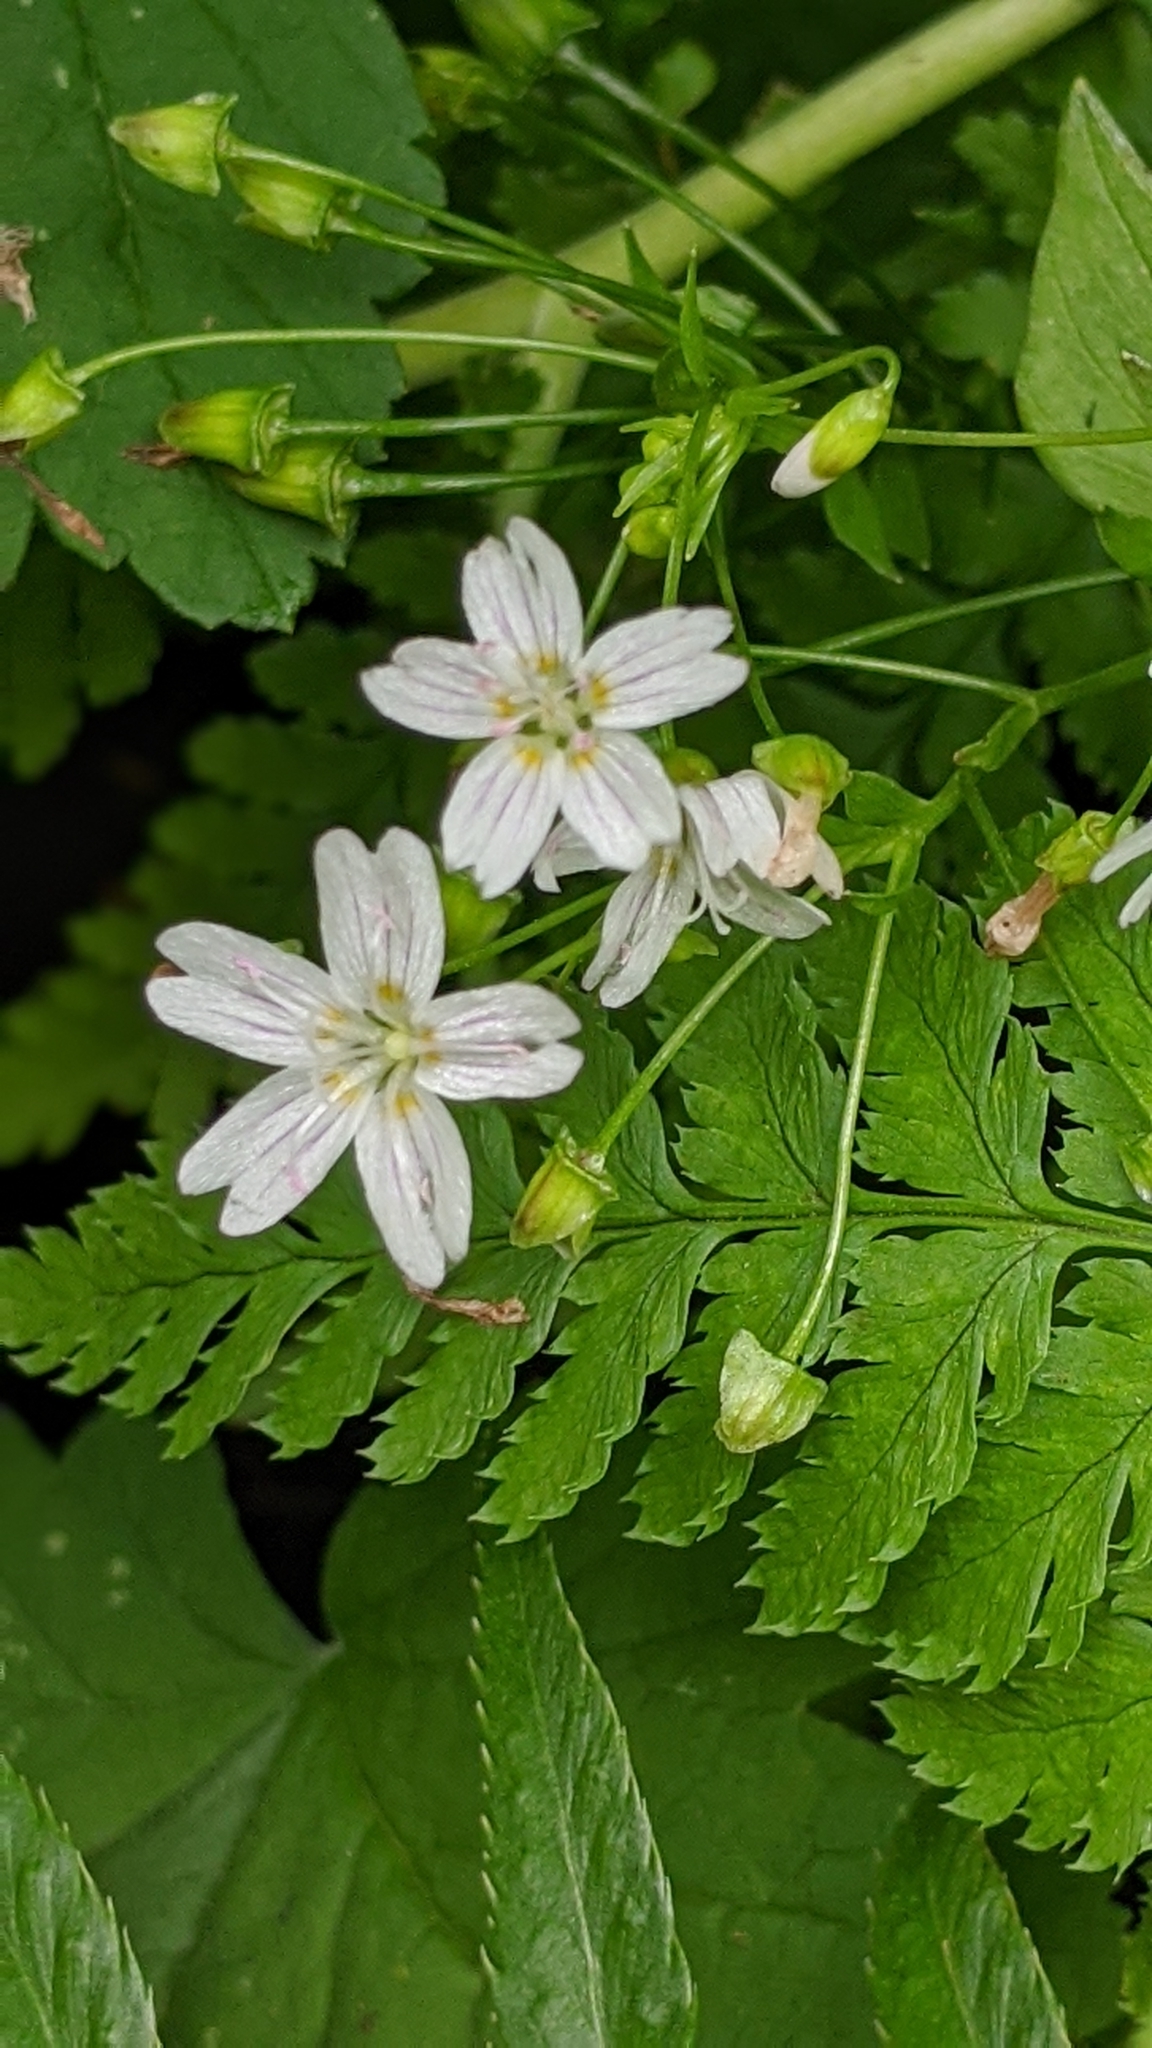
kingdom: Plantae
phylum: Tracheophyta
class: Magnoliopsida
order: Caryophyllales
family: Montiaceae
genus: Claytonia
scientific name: Claytonia sibirica
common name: Pink purslane
